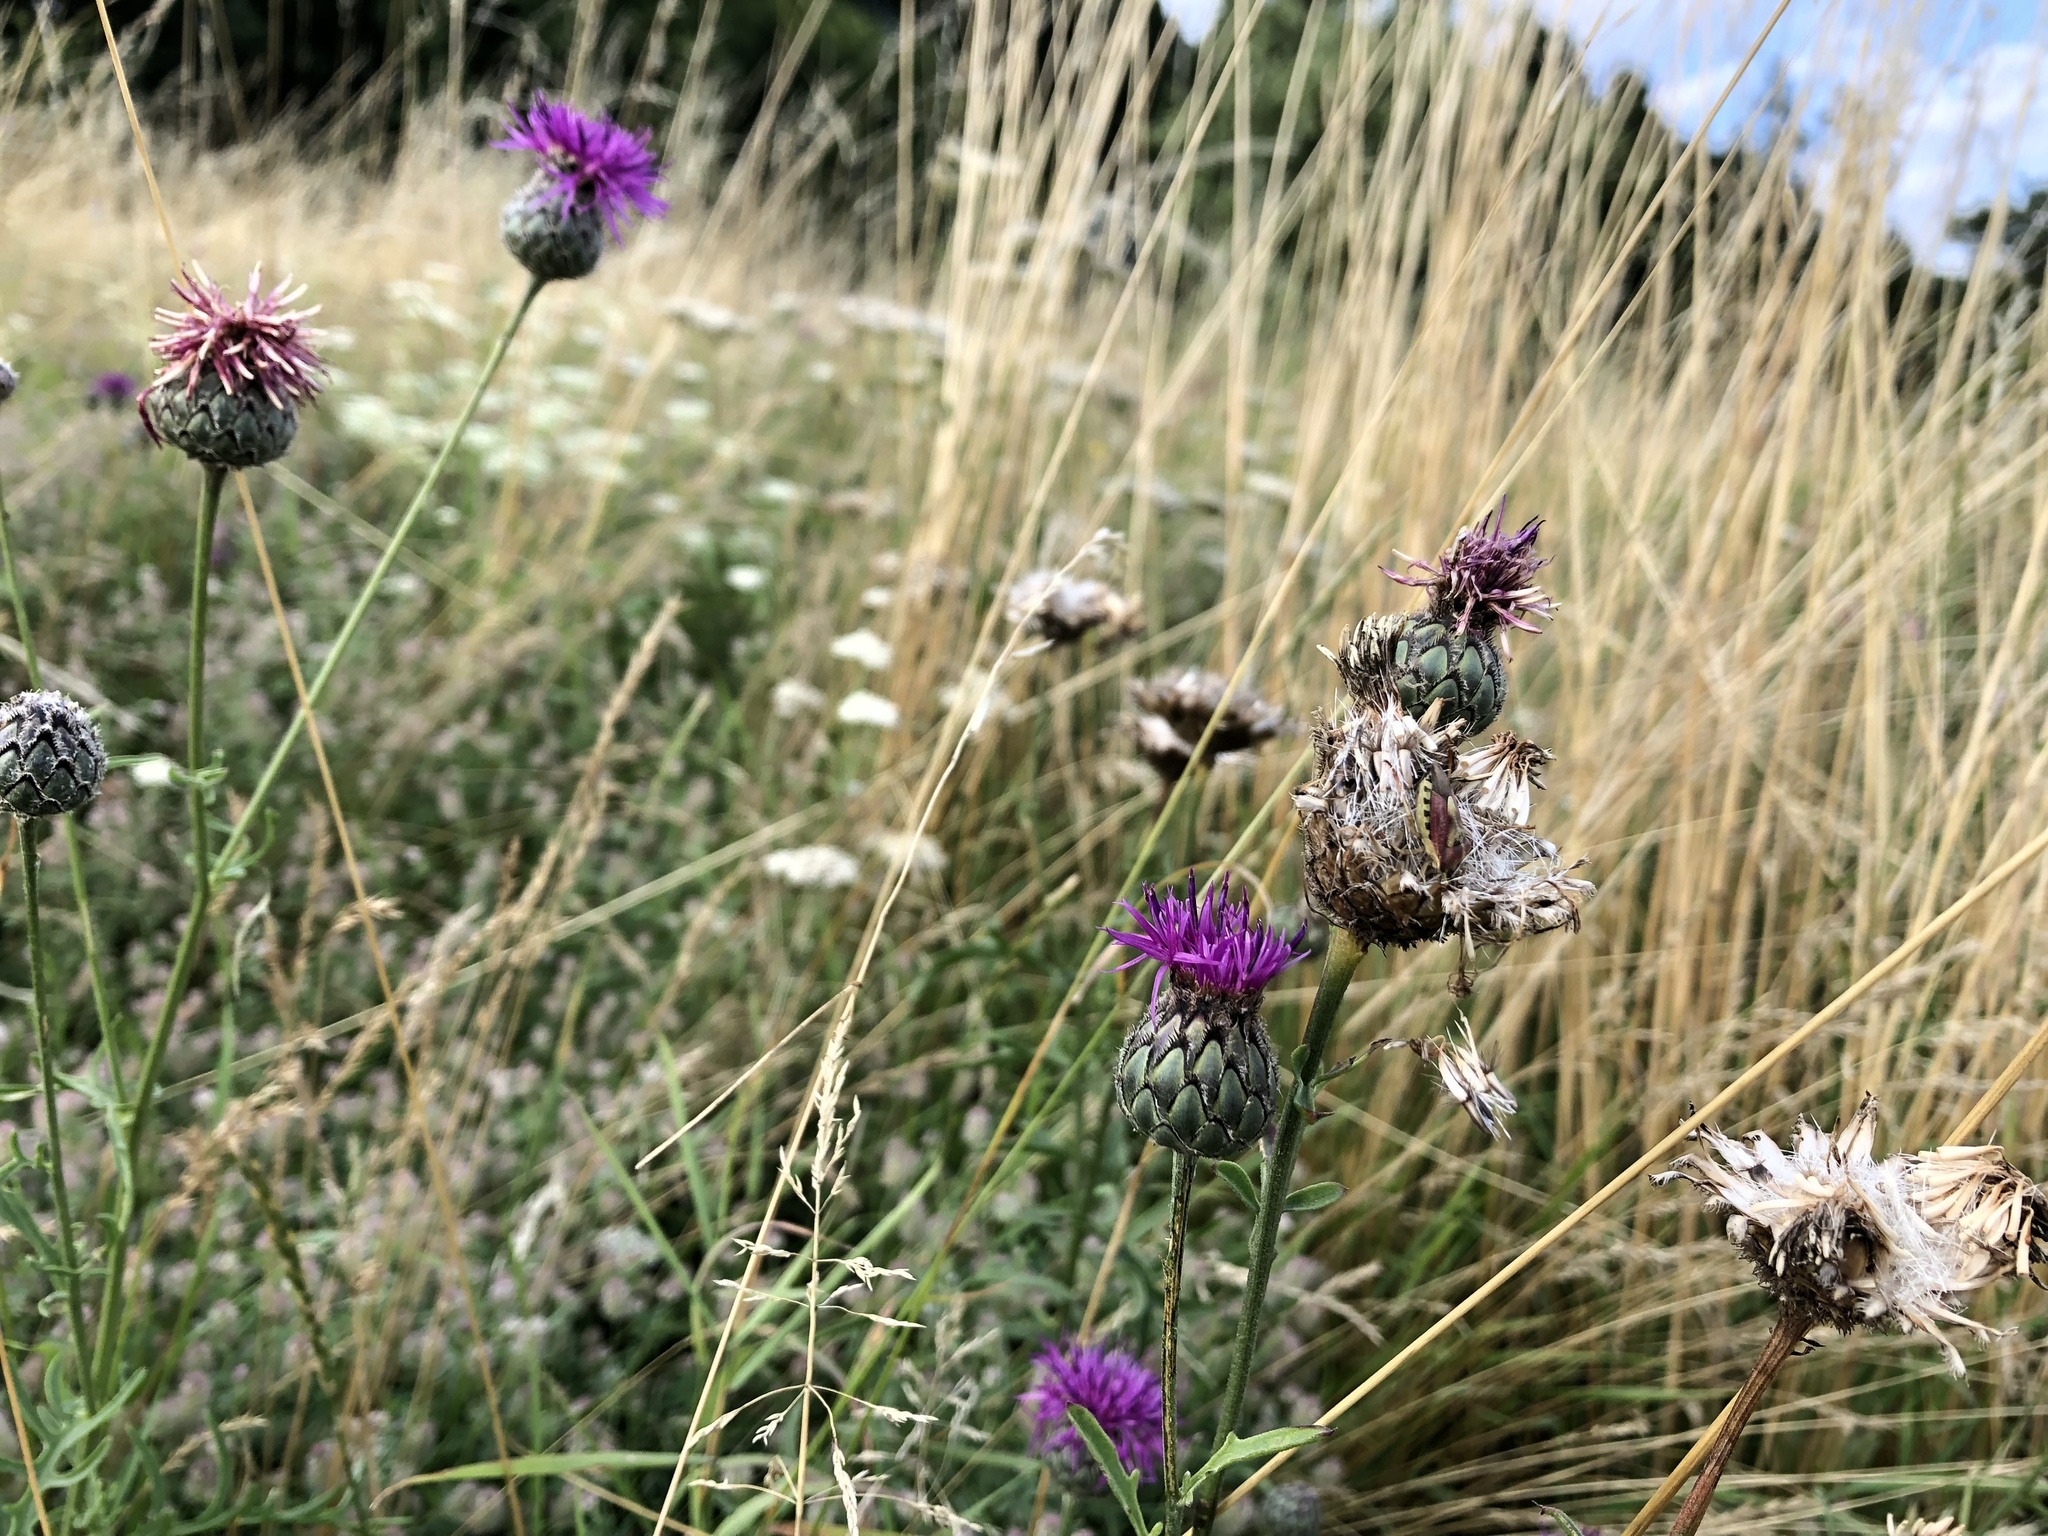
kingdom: Plantae
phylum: Tracheophyta
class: Magnoliopsida
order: Asterales
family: Asteraceae
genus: Centaurea
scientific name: Centaurea scabiosa
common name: Greater knapweed
